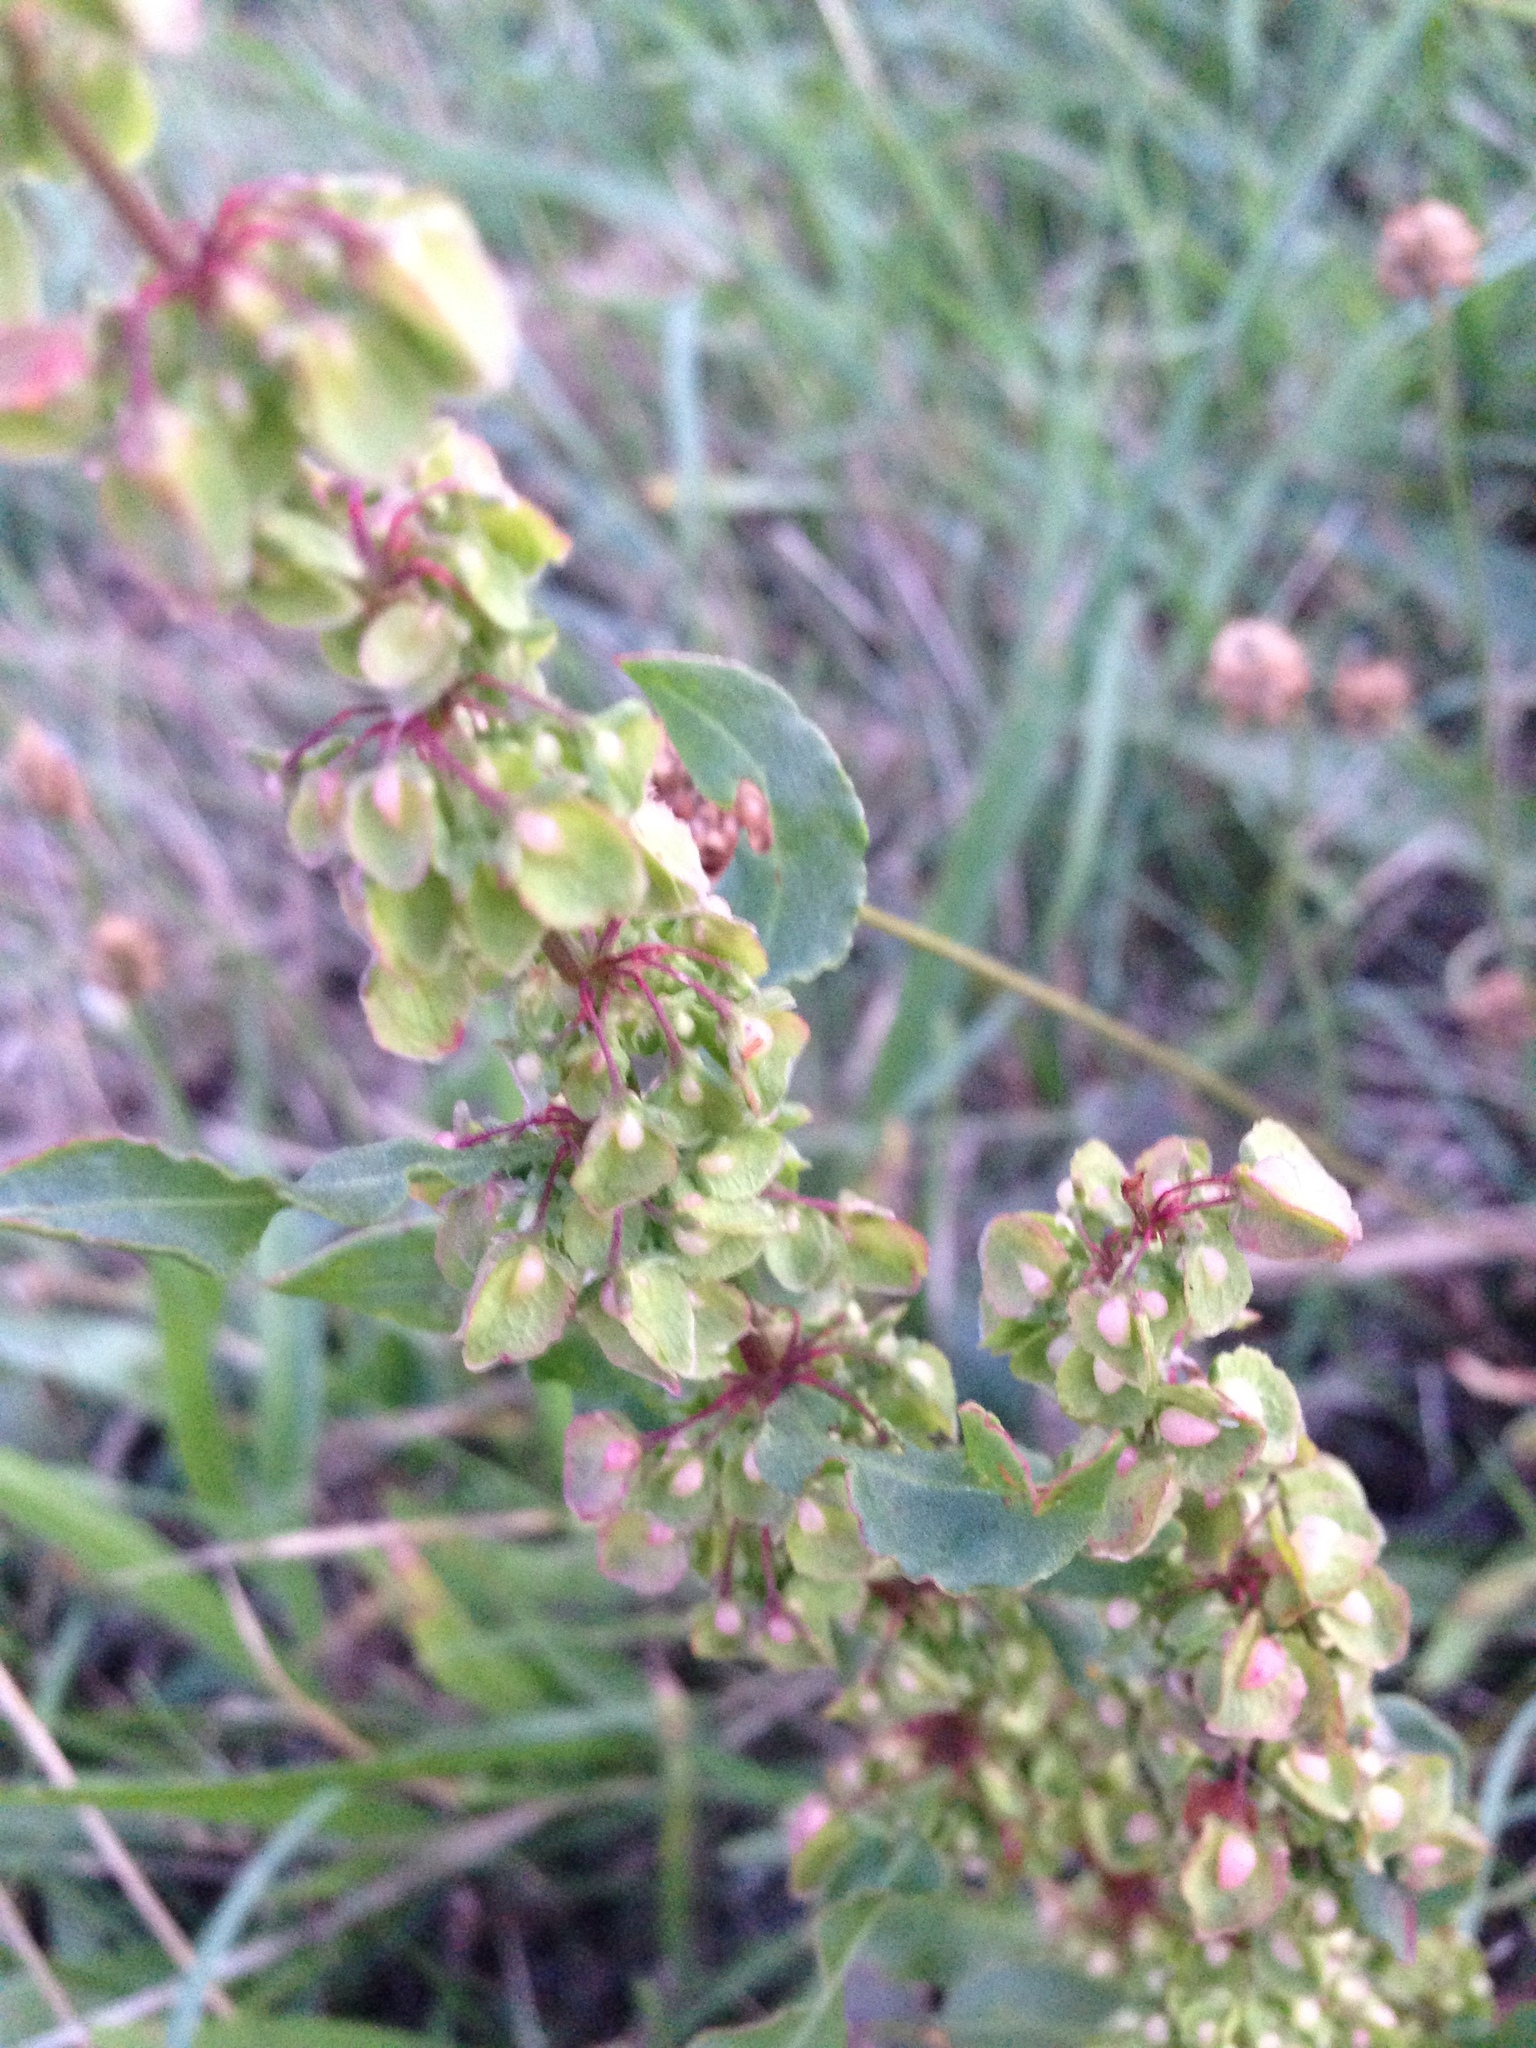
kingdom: Plantae
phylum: Tracheophyta
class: Magnoliopsida
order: Caryophyllales
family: Polygonaceae
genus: Rumex
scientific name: Rumex crispus
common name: Curled dock
